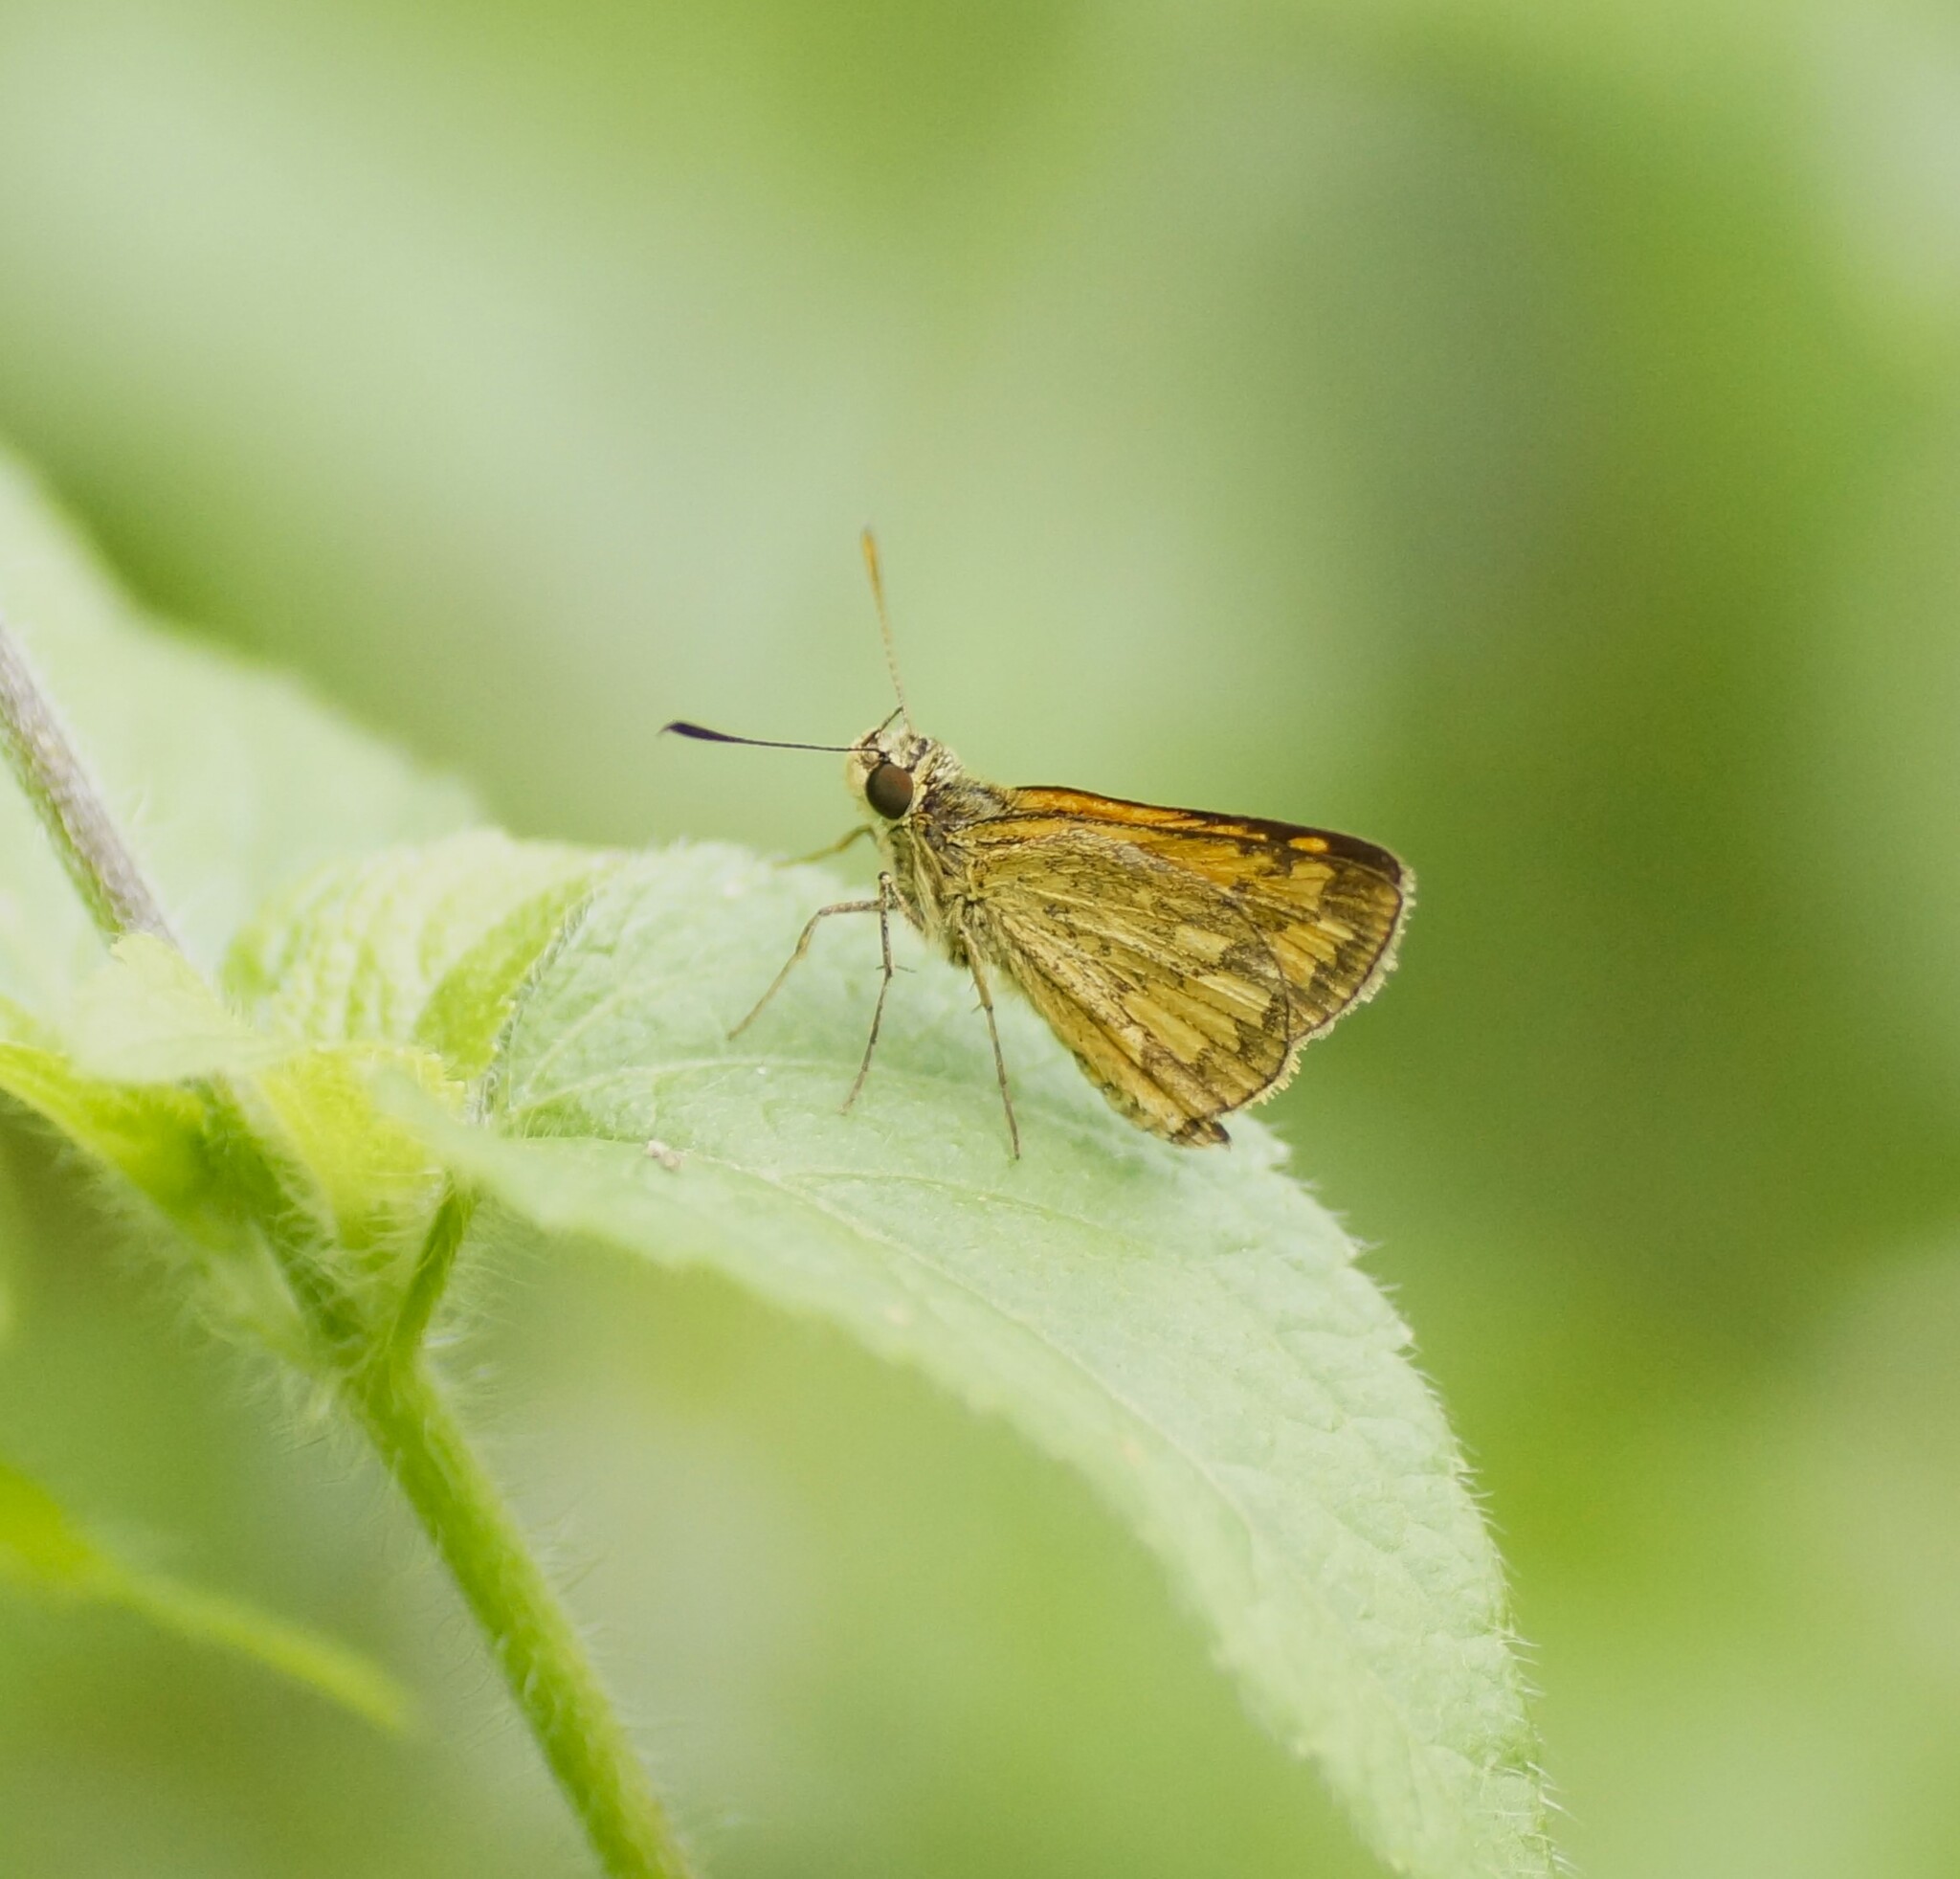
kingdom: Animalia
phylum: Arthropoda
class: Insecta
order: Lepidoptera
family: Hesperiidae
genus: Suniana
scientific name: Suniana sunias
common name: Wide-brand grass-dart
